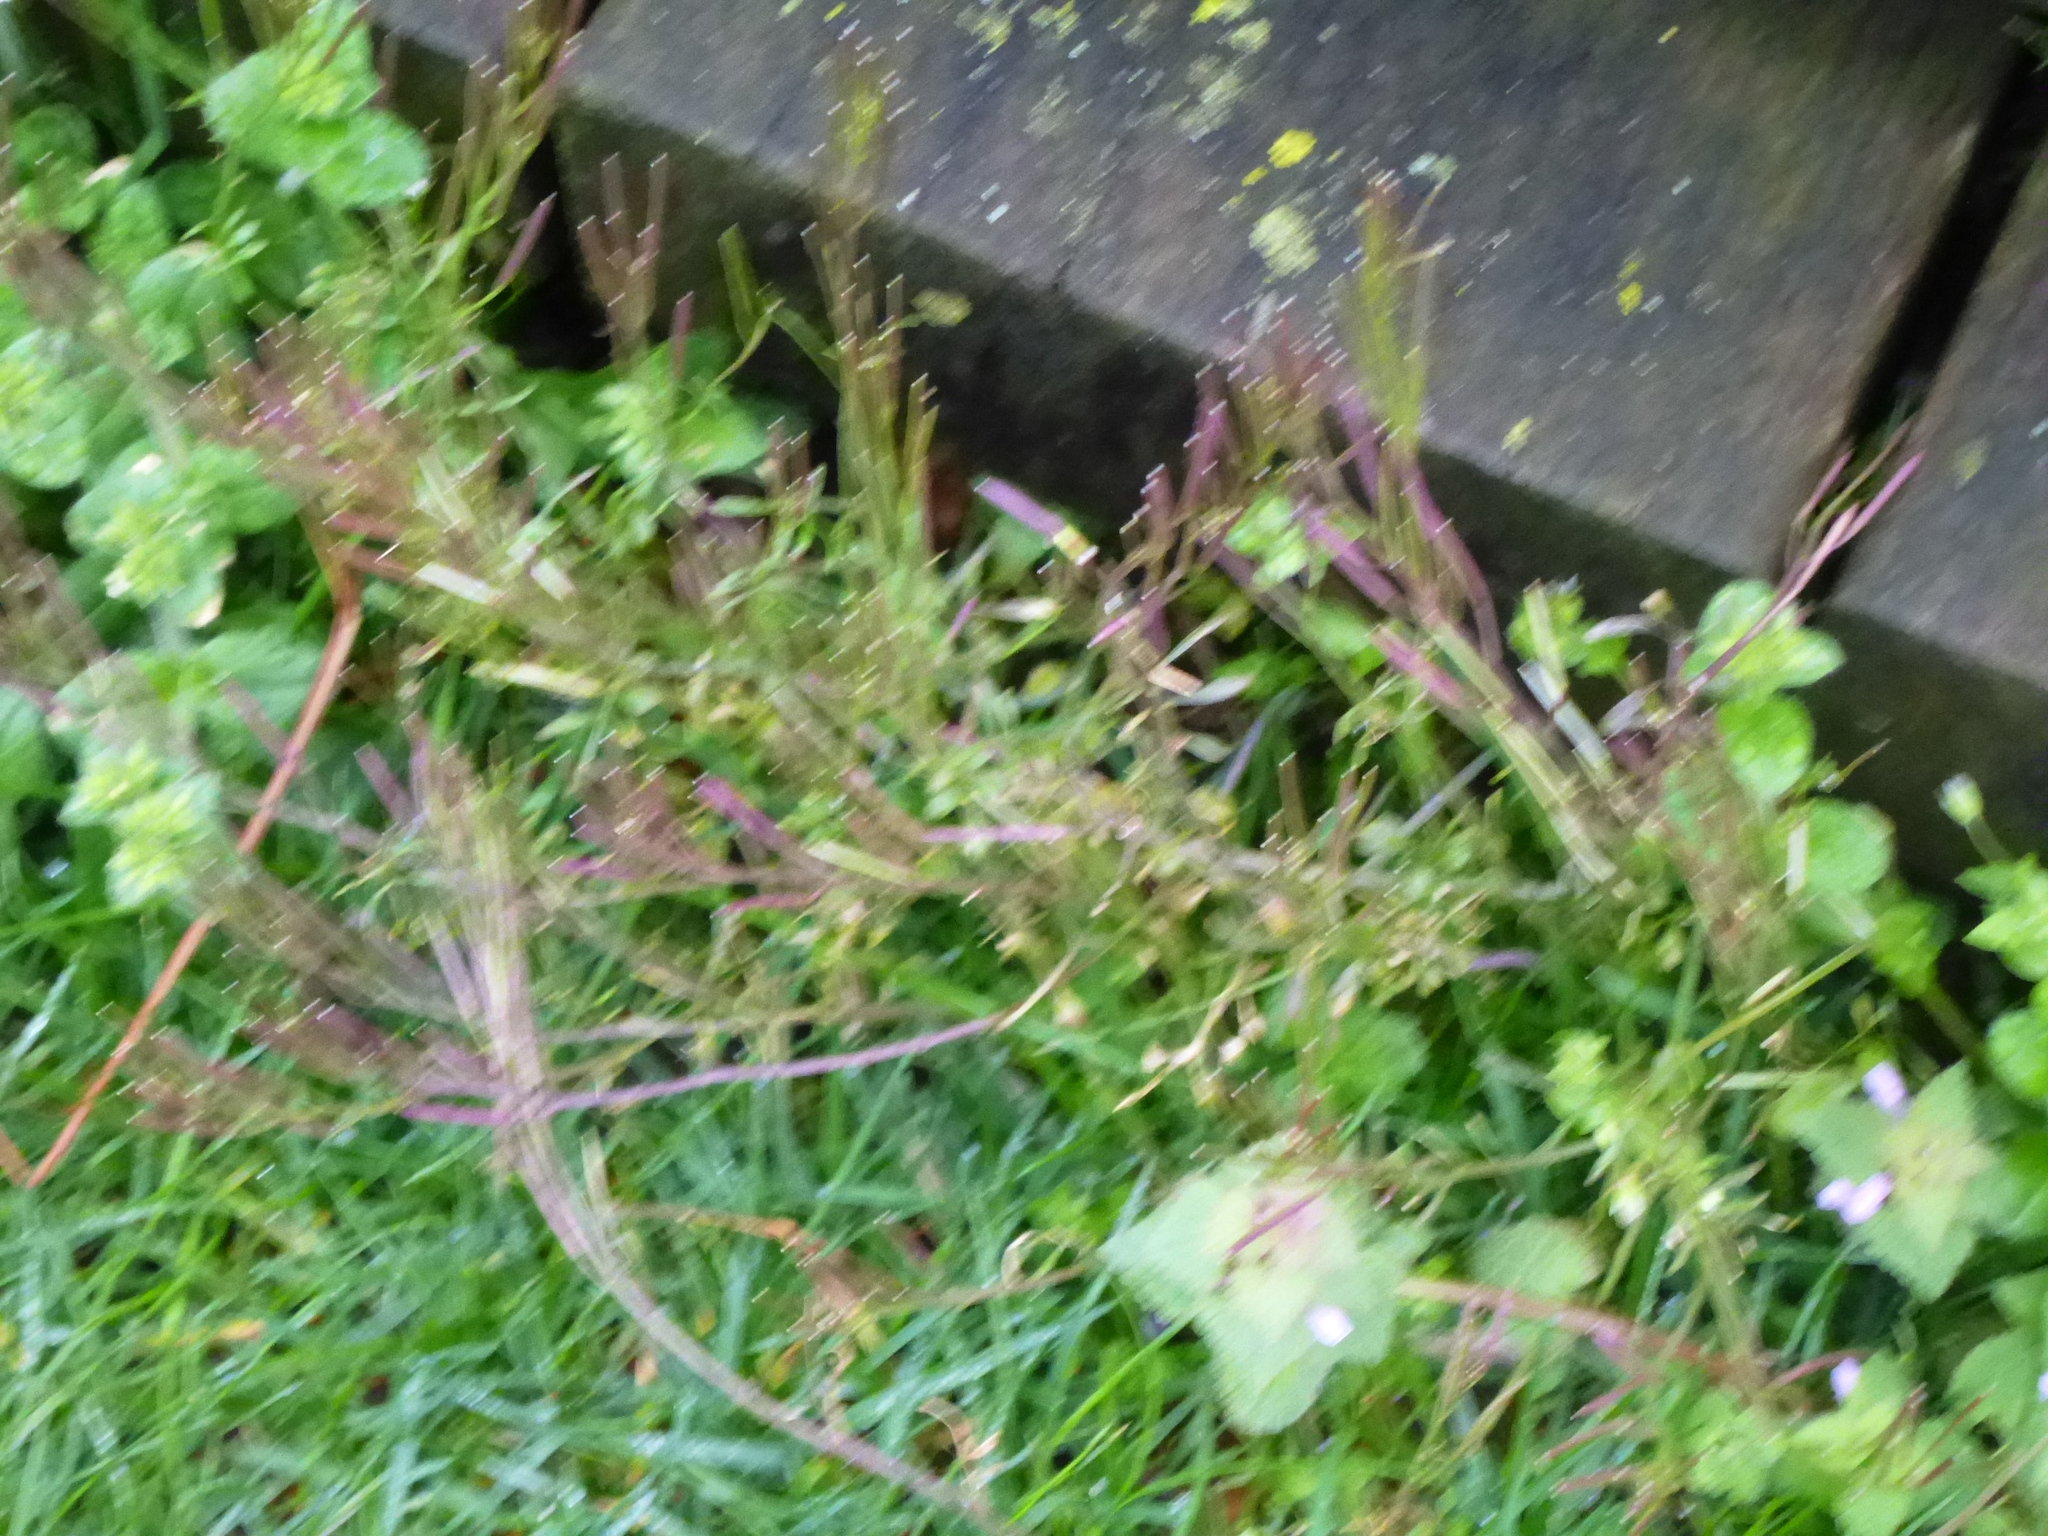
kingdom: Plantae
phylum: Tracheophyta
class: Magnoliopsida
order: Lamiales
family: Lamiaceae
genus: Lamium
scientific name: Lamium purpureum
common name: Red dead-nettle
